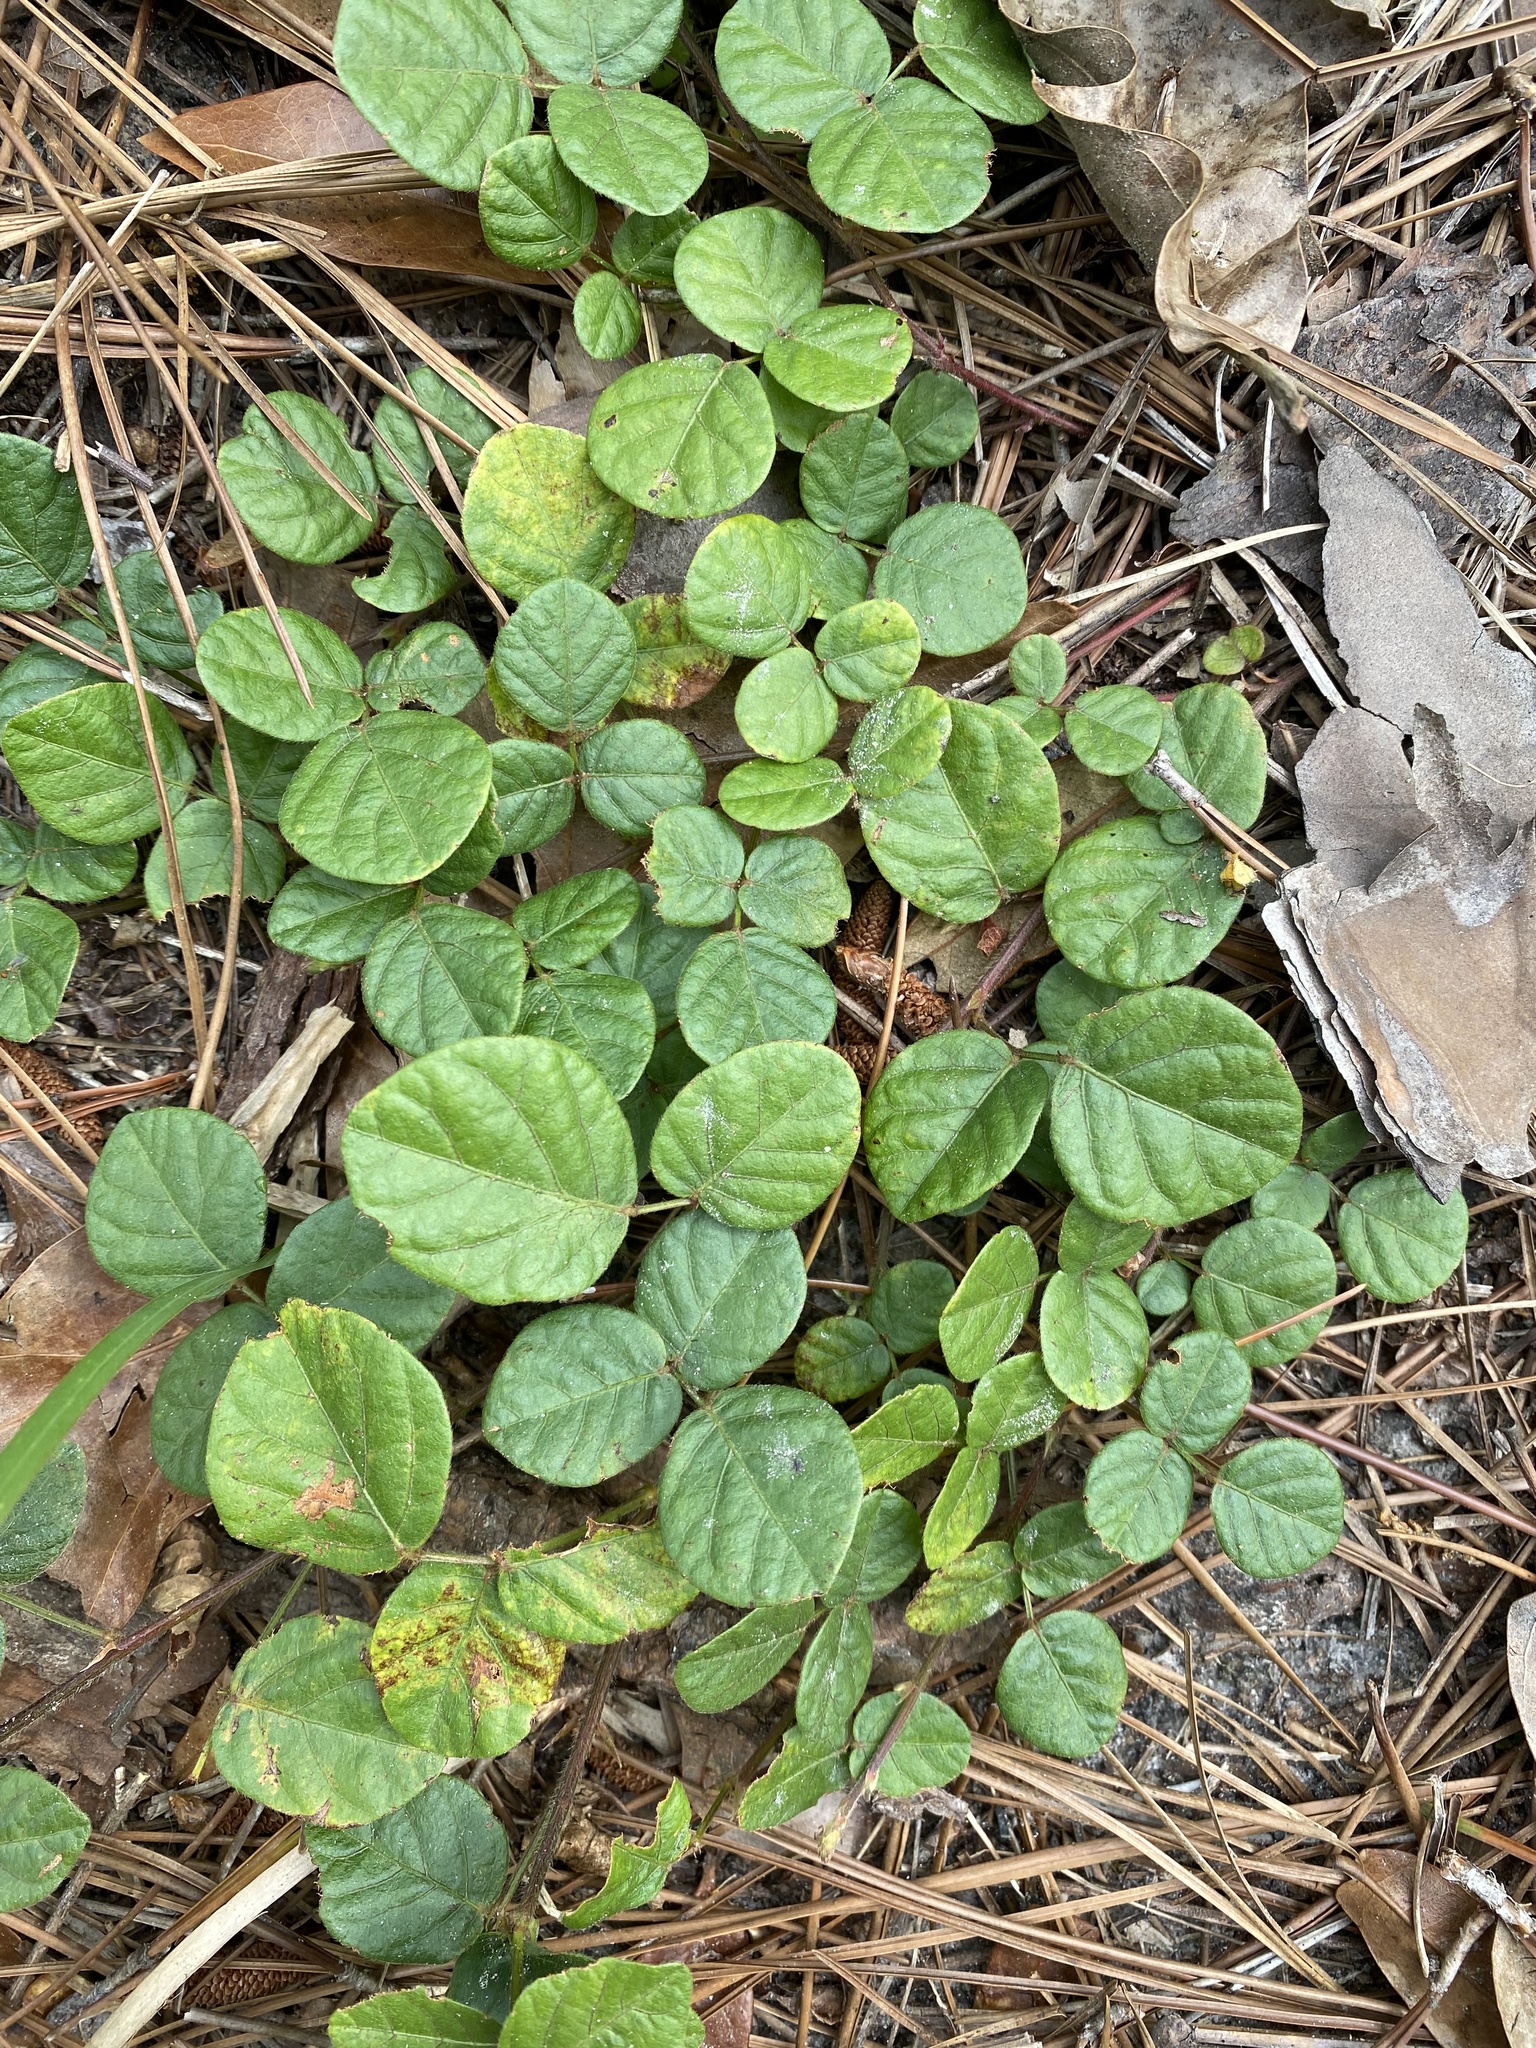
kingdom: Plantae
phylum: Tracheophyta
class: Magnoliopsida
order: Fabales
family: Fabaceae
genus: Desmodium
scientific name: Desmodium rotundifolium
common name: Dollarleaf
